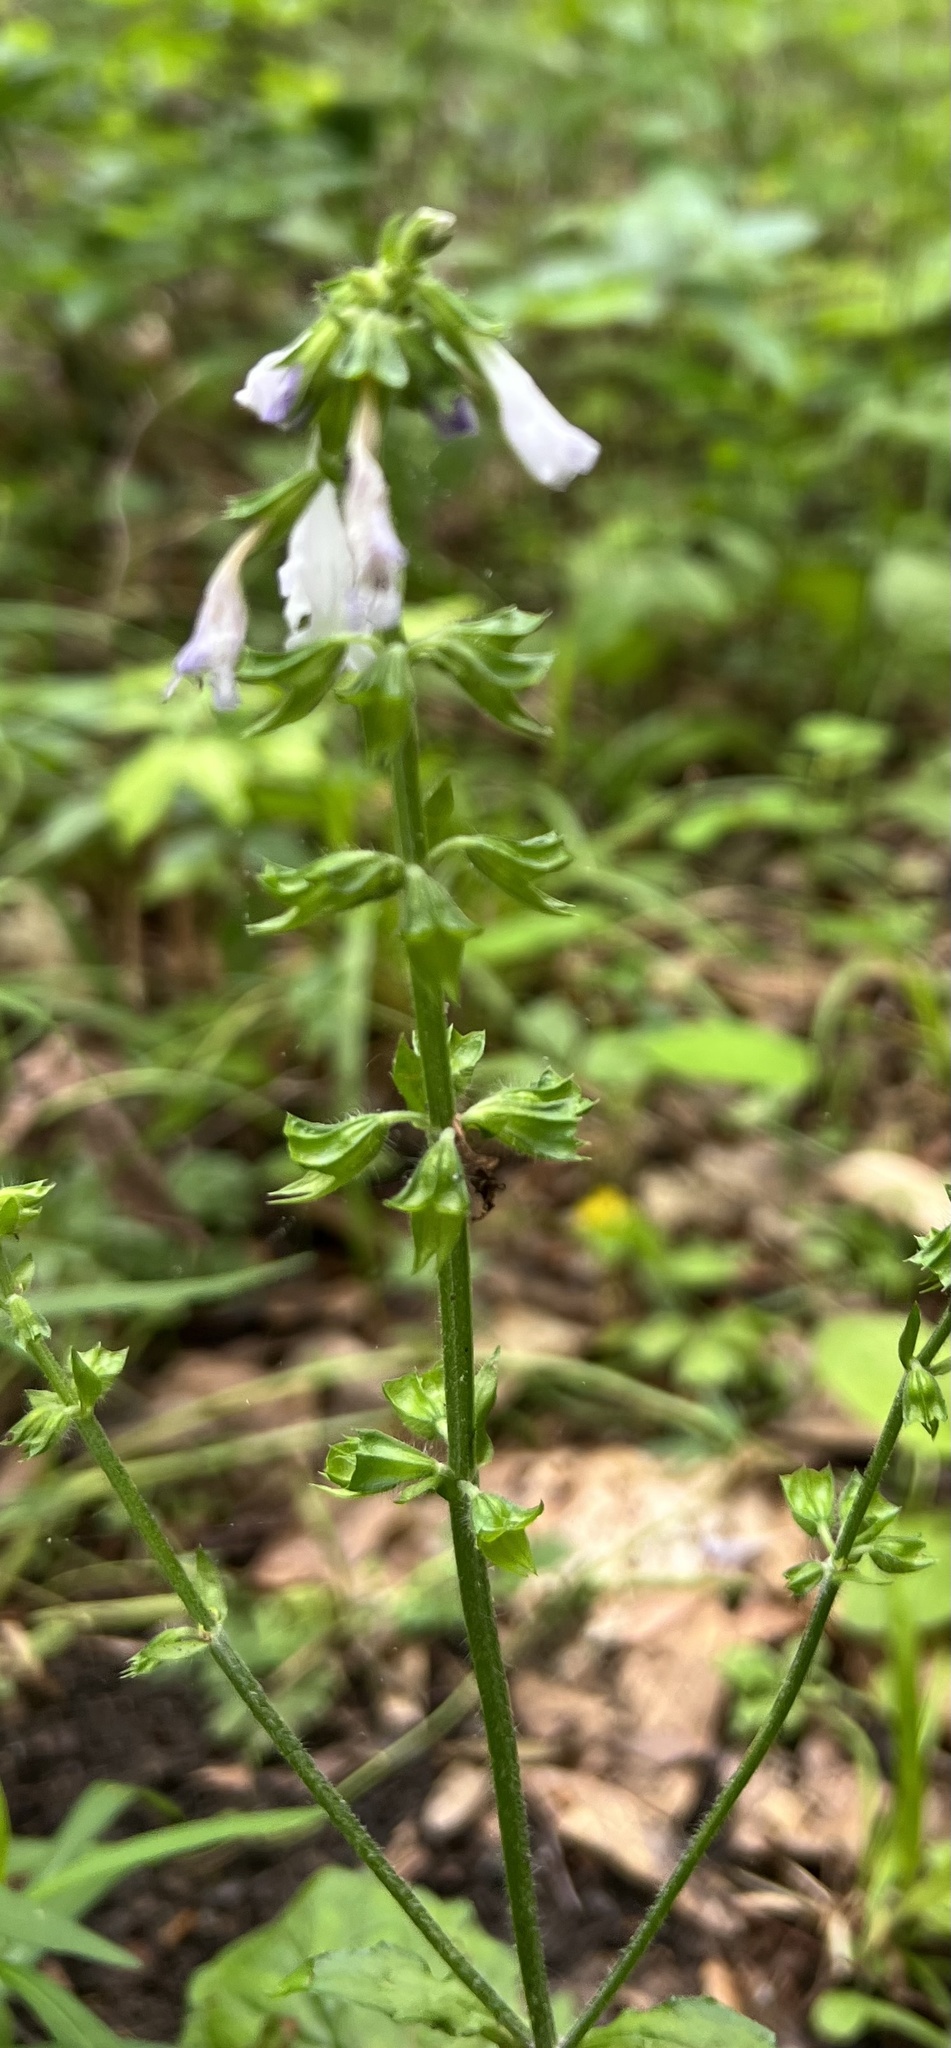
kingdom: Plantae
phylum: Tracheophyta
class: Magnoliopsida
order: Lamiales
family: Lamiaceae
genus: Salvia
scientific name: Salvia lyrata
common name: Cancerweed
